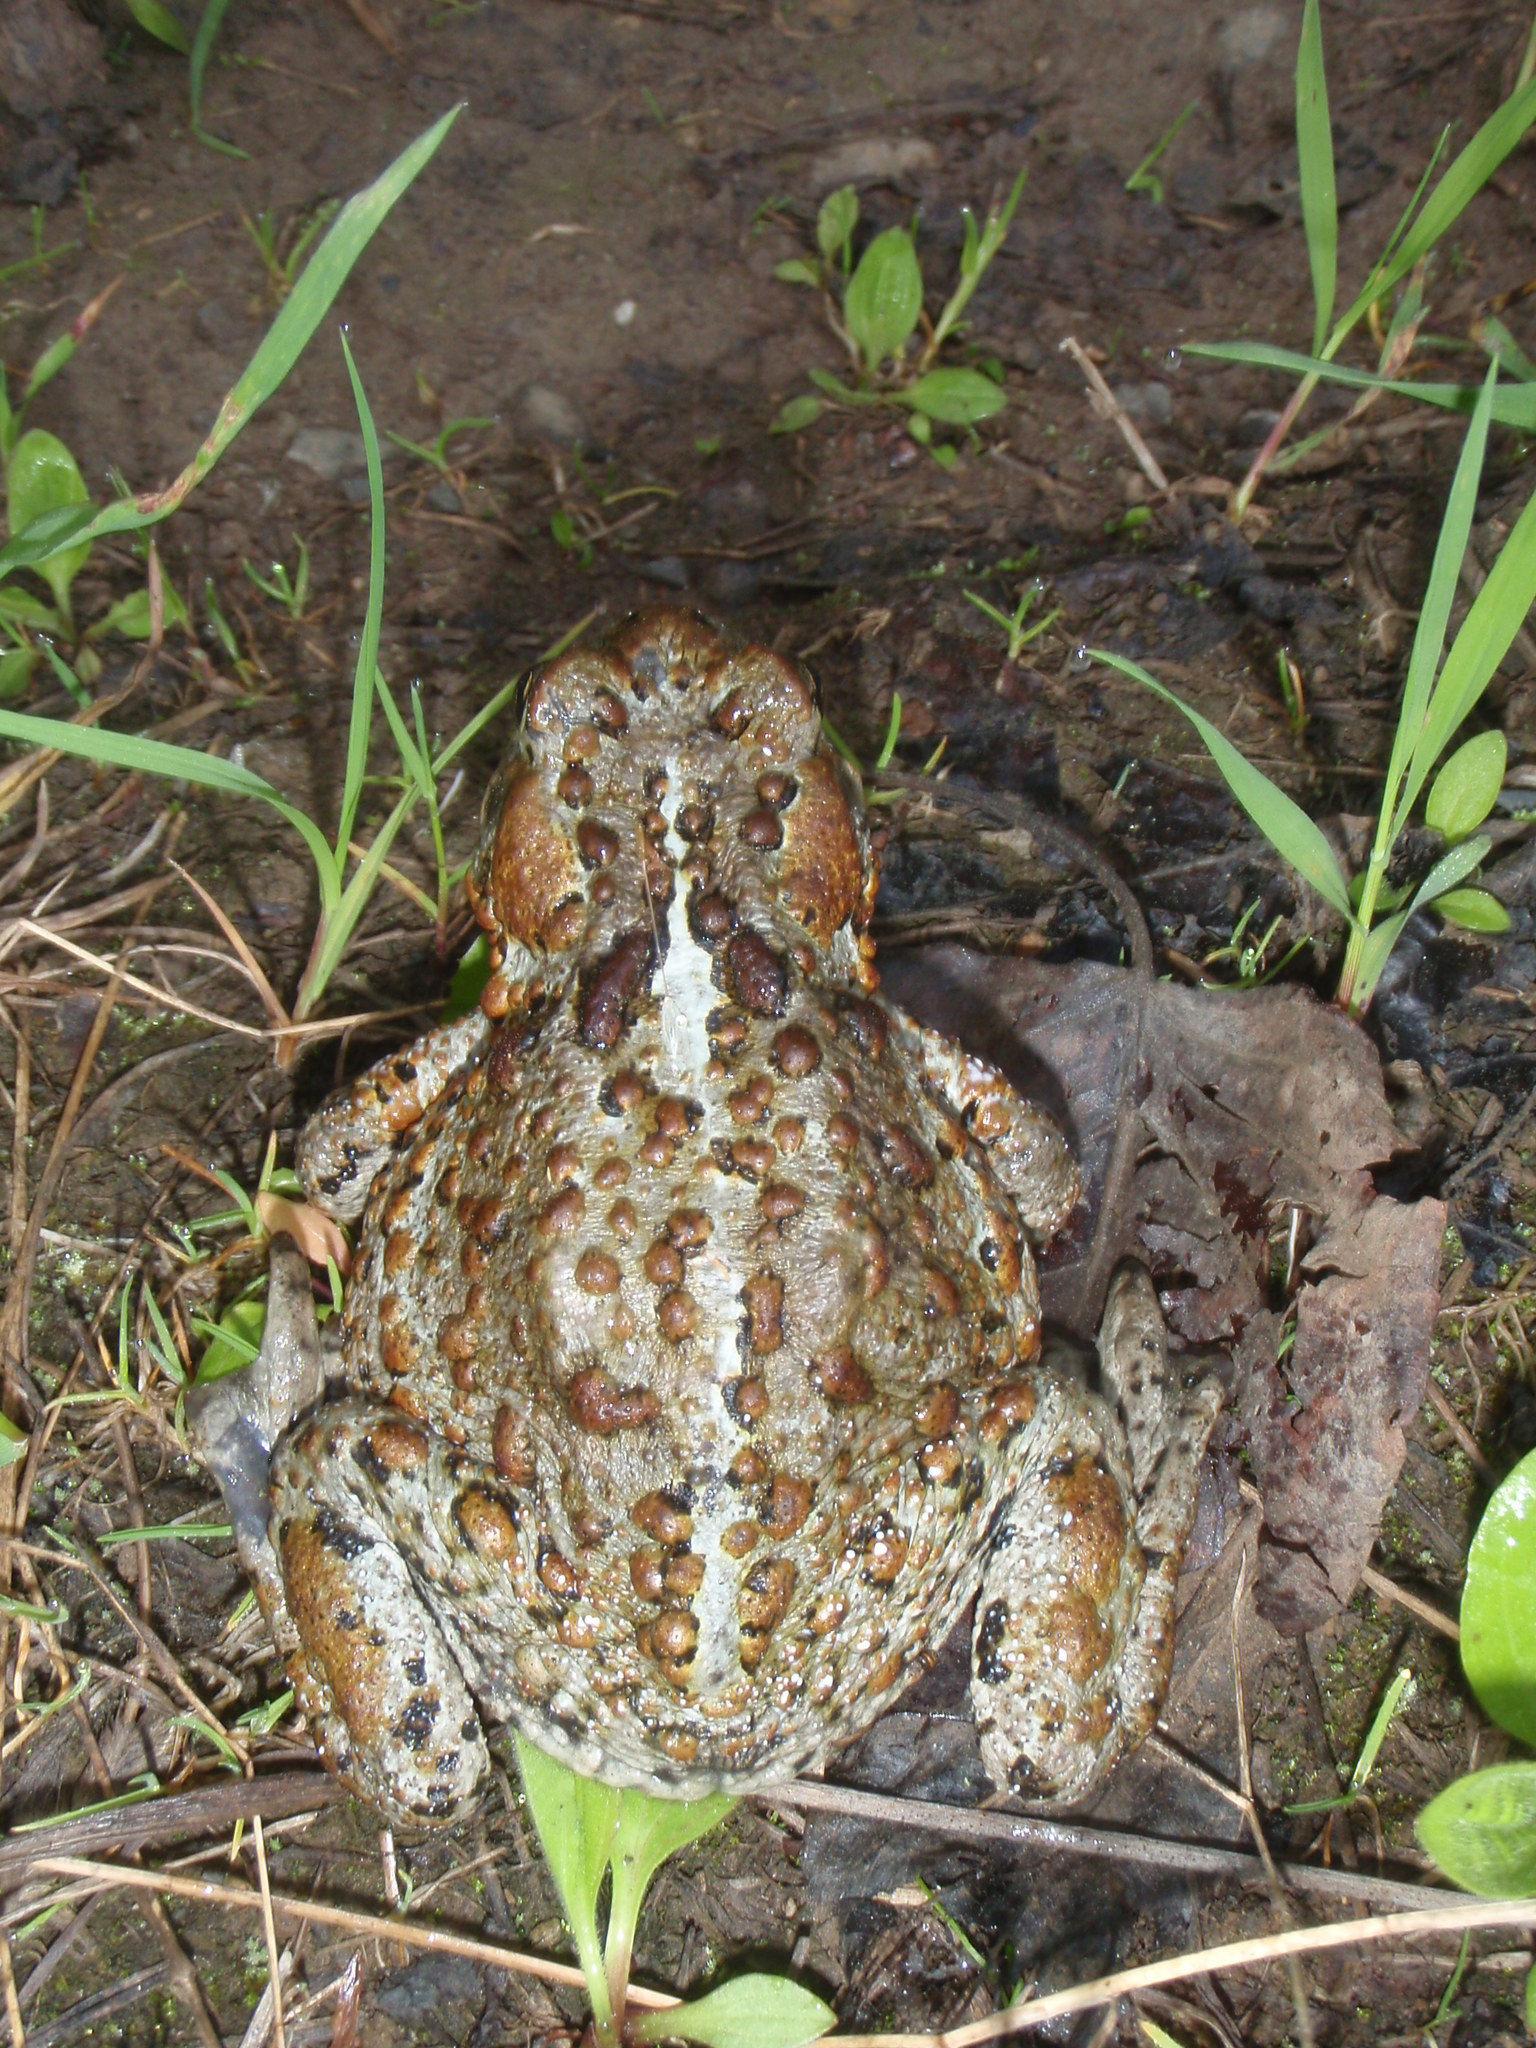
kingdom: Animalia
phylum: Chordata
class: Amphibia
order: Anura
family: Bufonidae
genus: Anaxyrus
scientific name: Anaxyrus boreas
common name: Western toad
